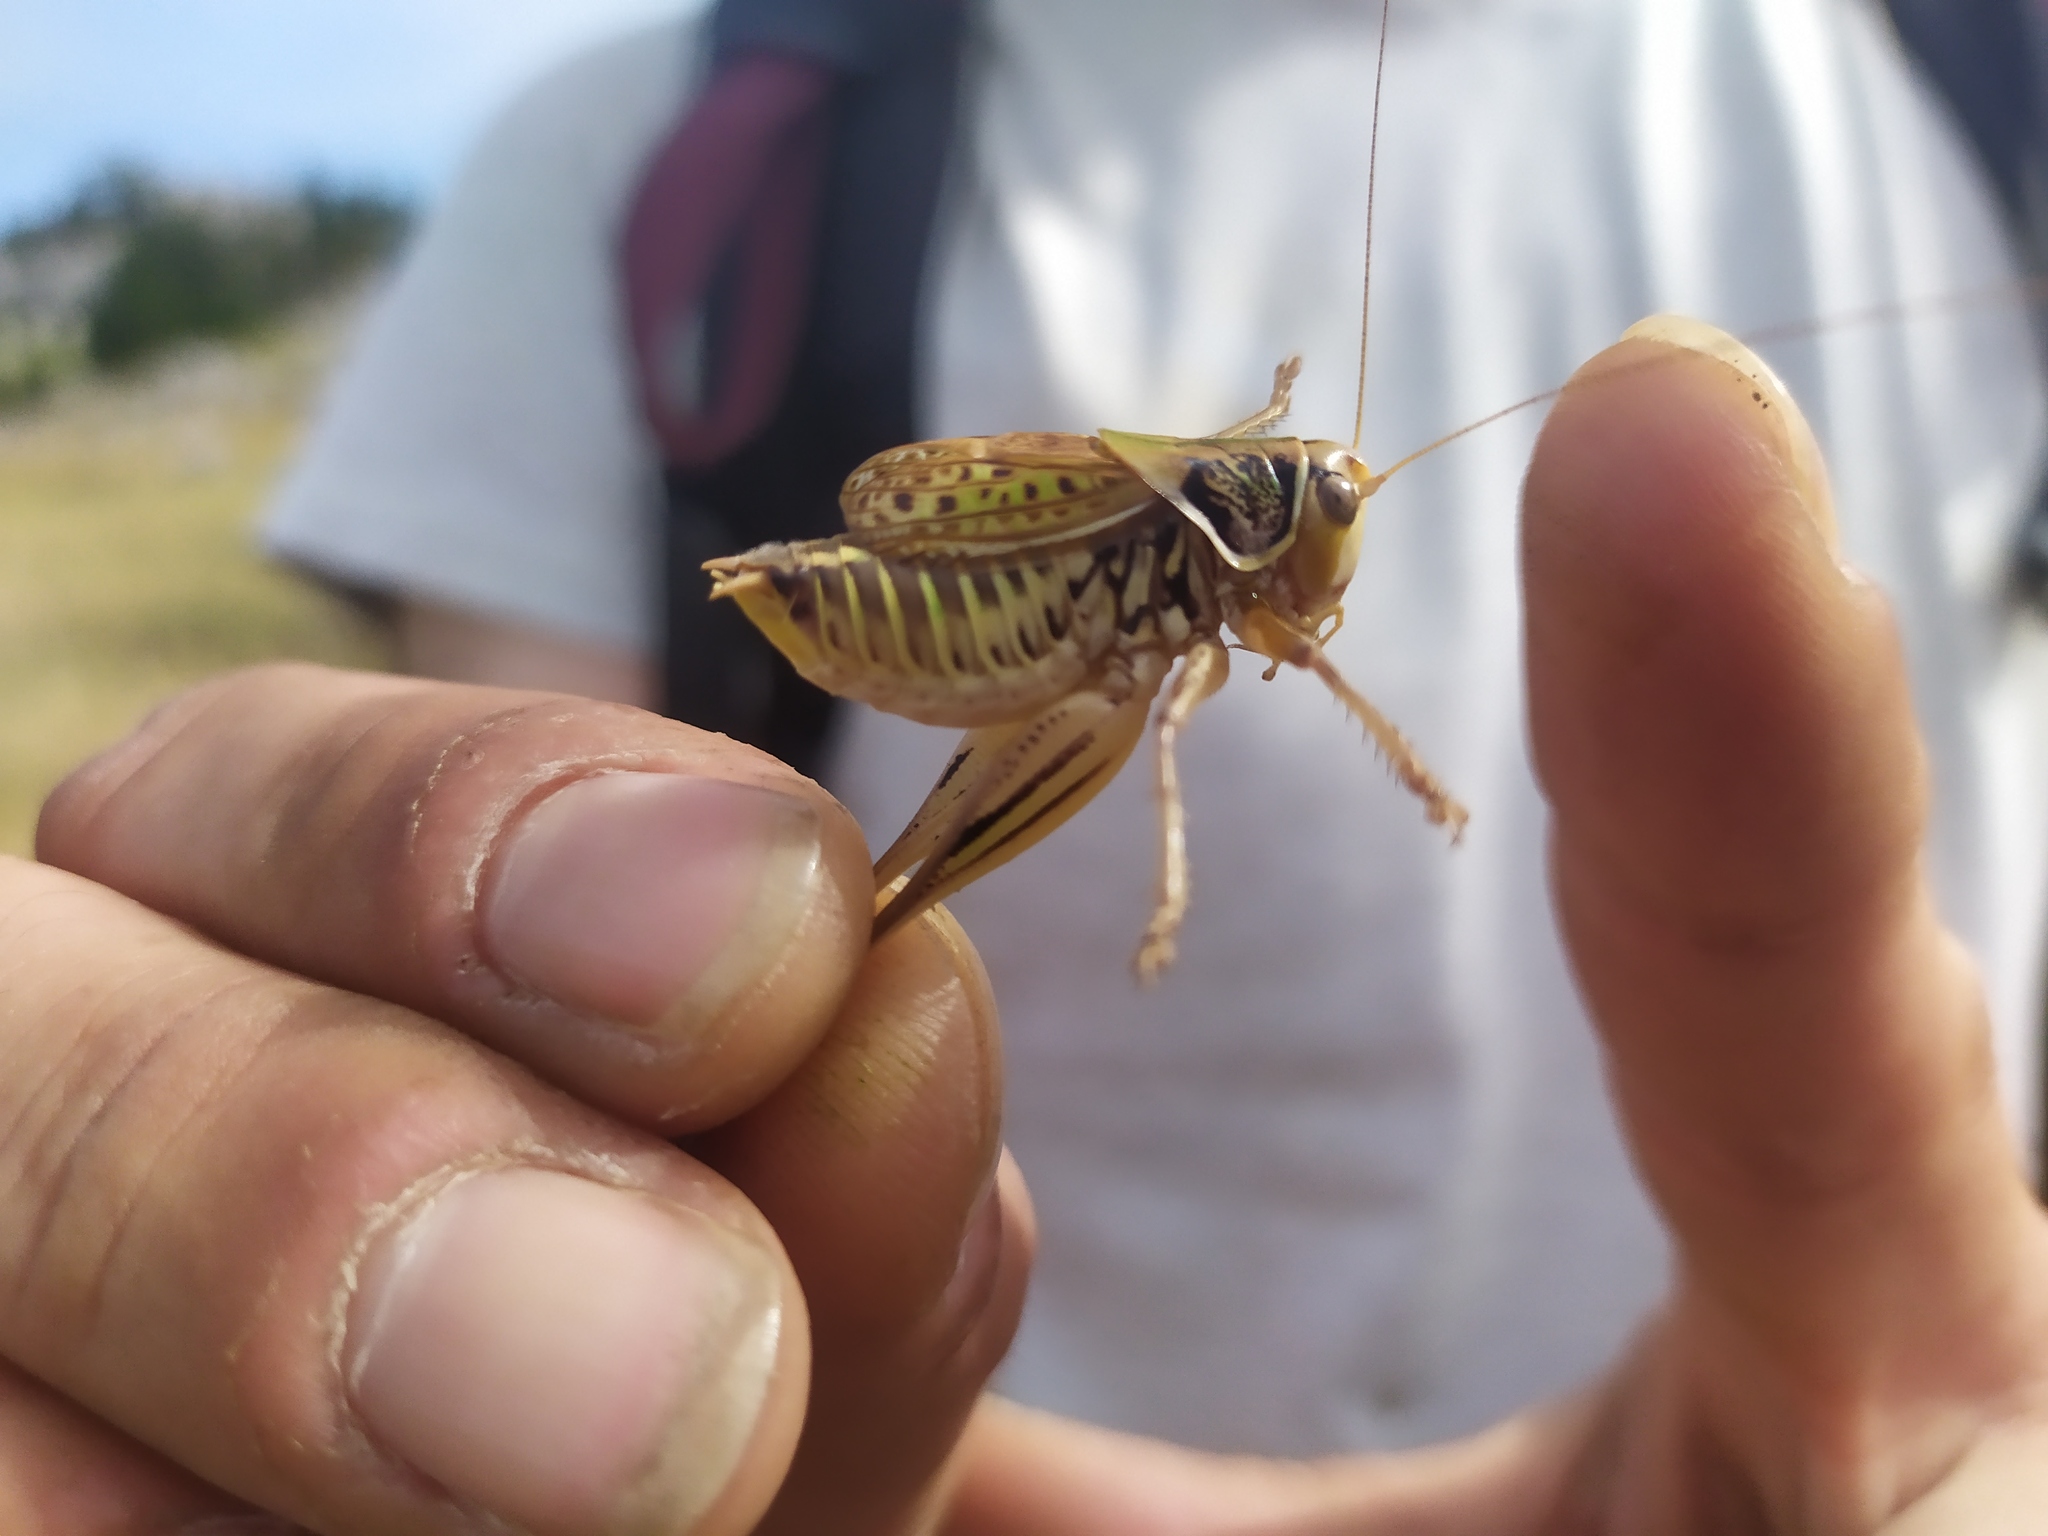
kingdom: Animalia
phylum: Arthropoda
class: Insecta
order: Orthoptera
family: Tettigoniidae
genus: Gampsocleis
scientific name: Gampsocleis abbreviata
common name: Short-winged spiny bush-cricket
